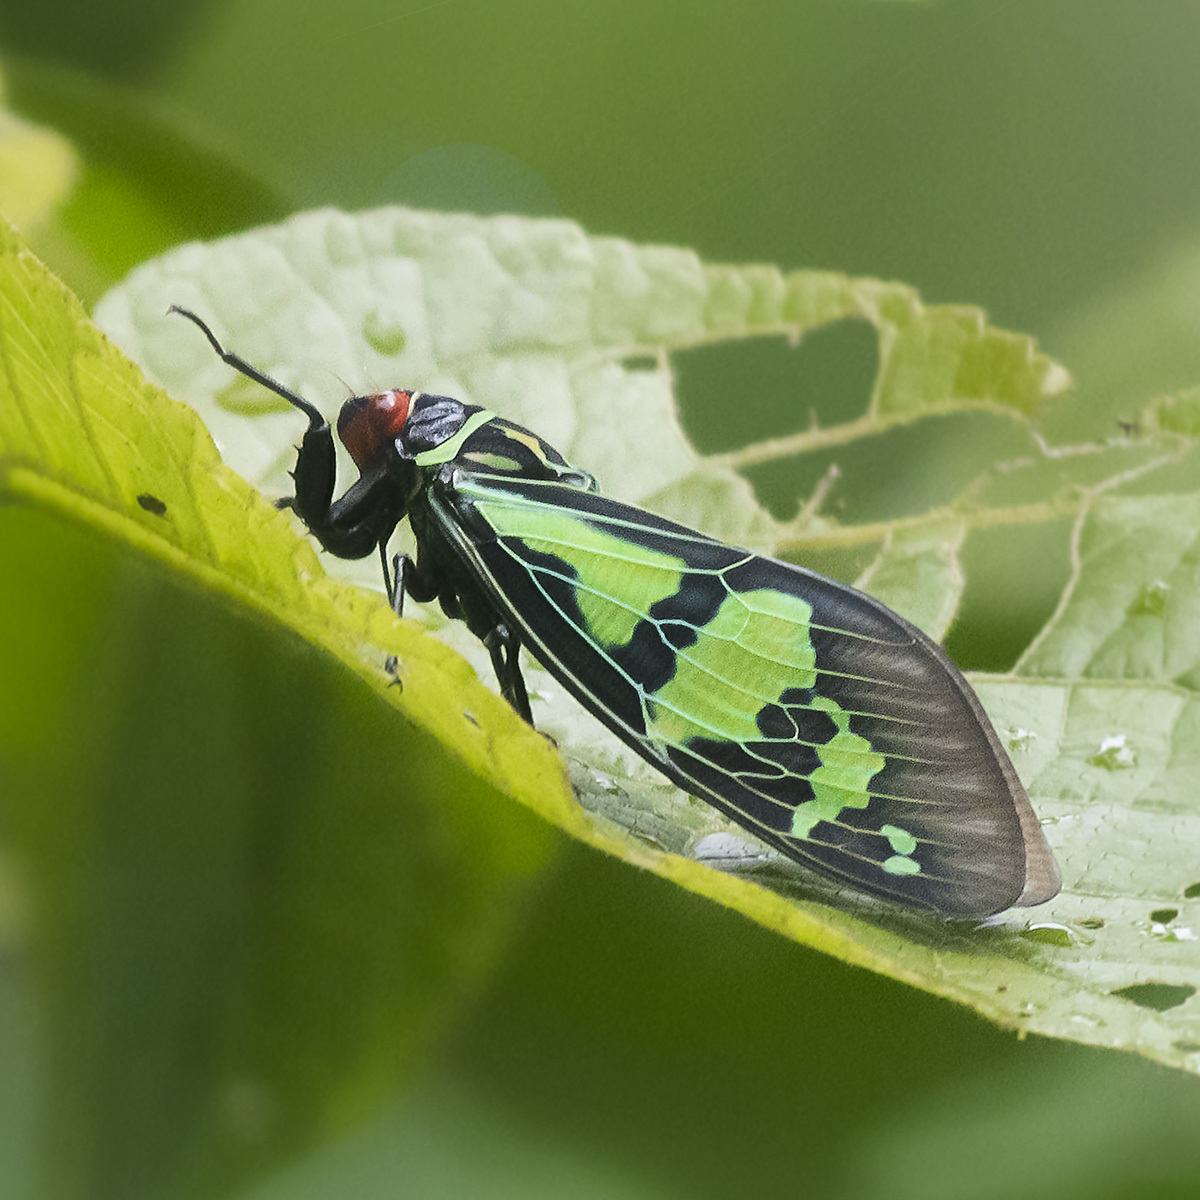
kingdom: Animalia
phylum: Arthropoda
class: Insecta
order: Hemiptera
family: Cicadidae
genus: Callogaeana
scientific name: Callogaeana festiva
